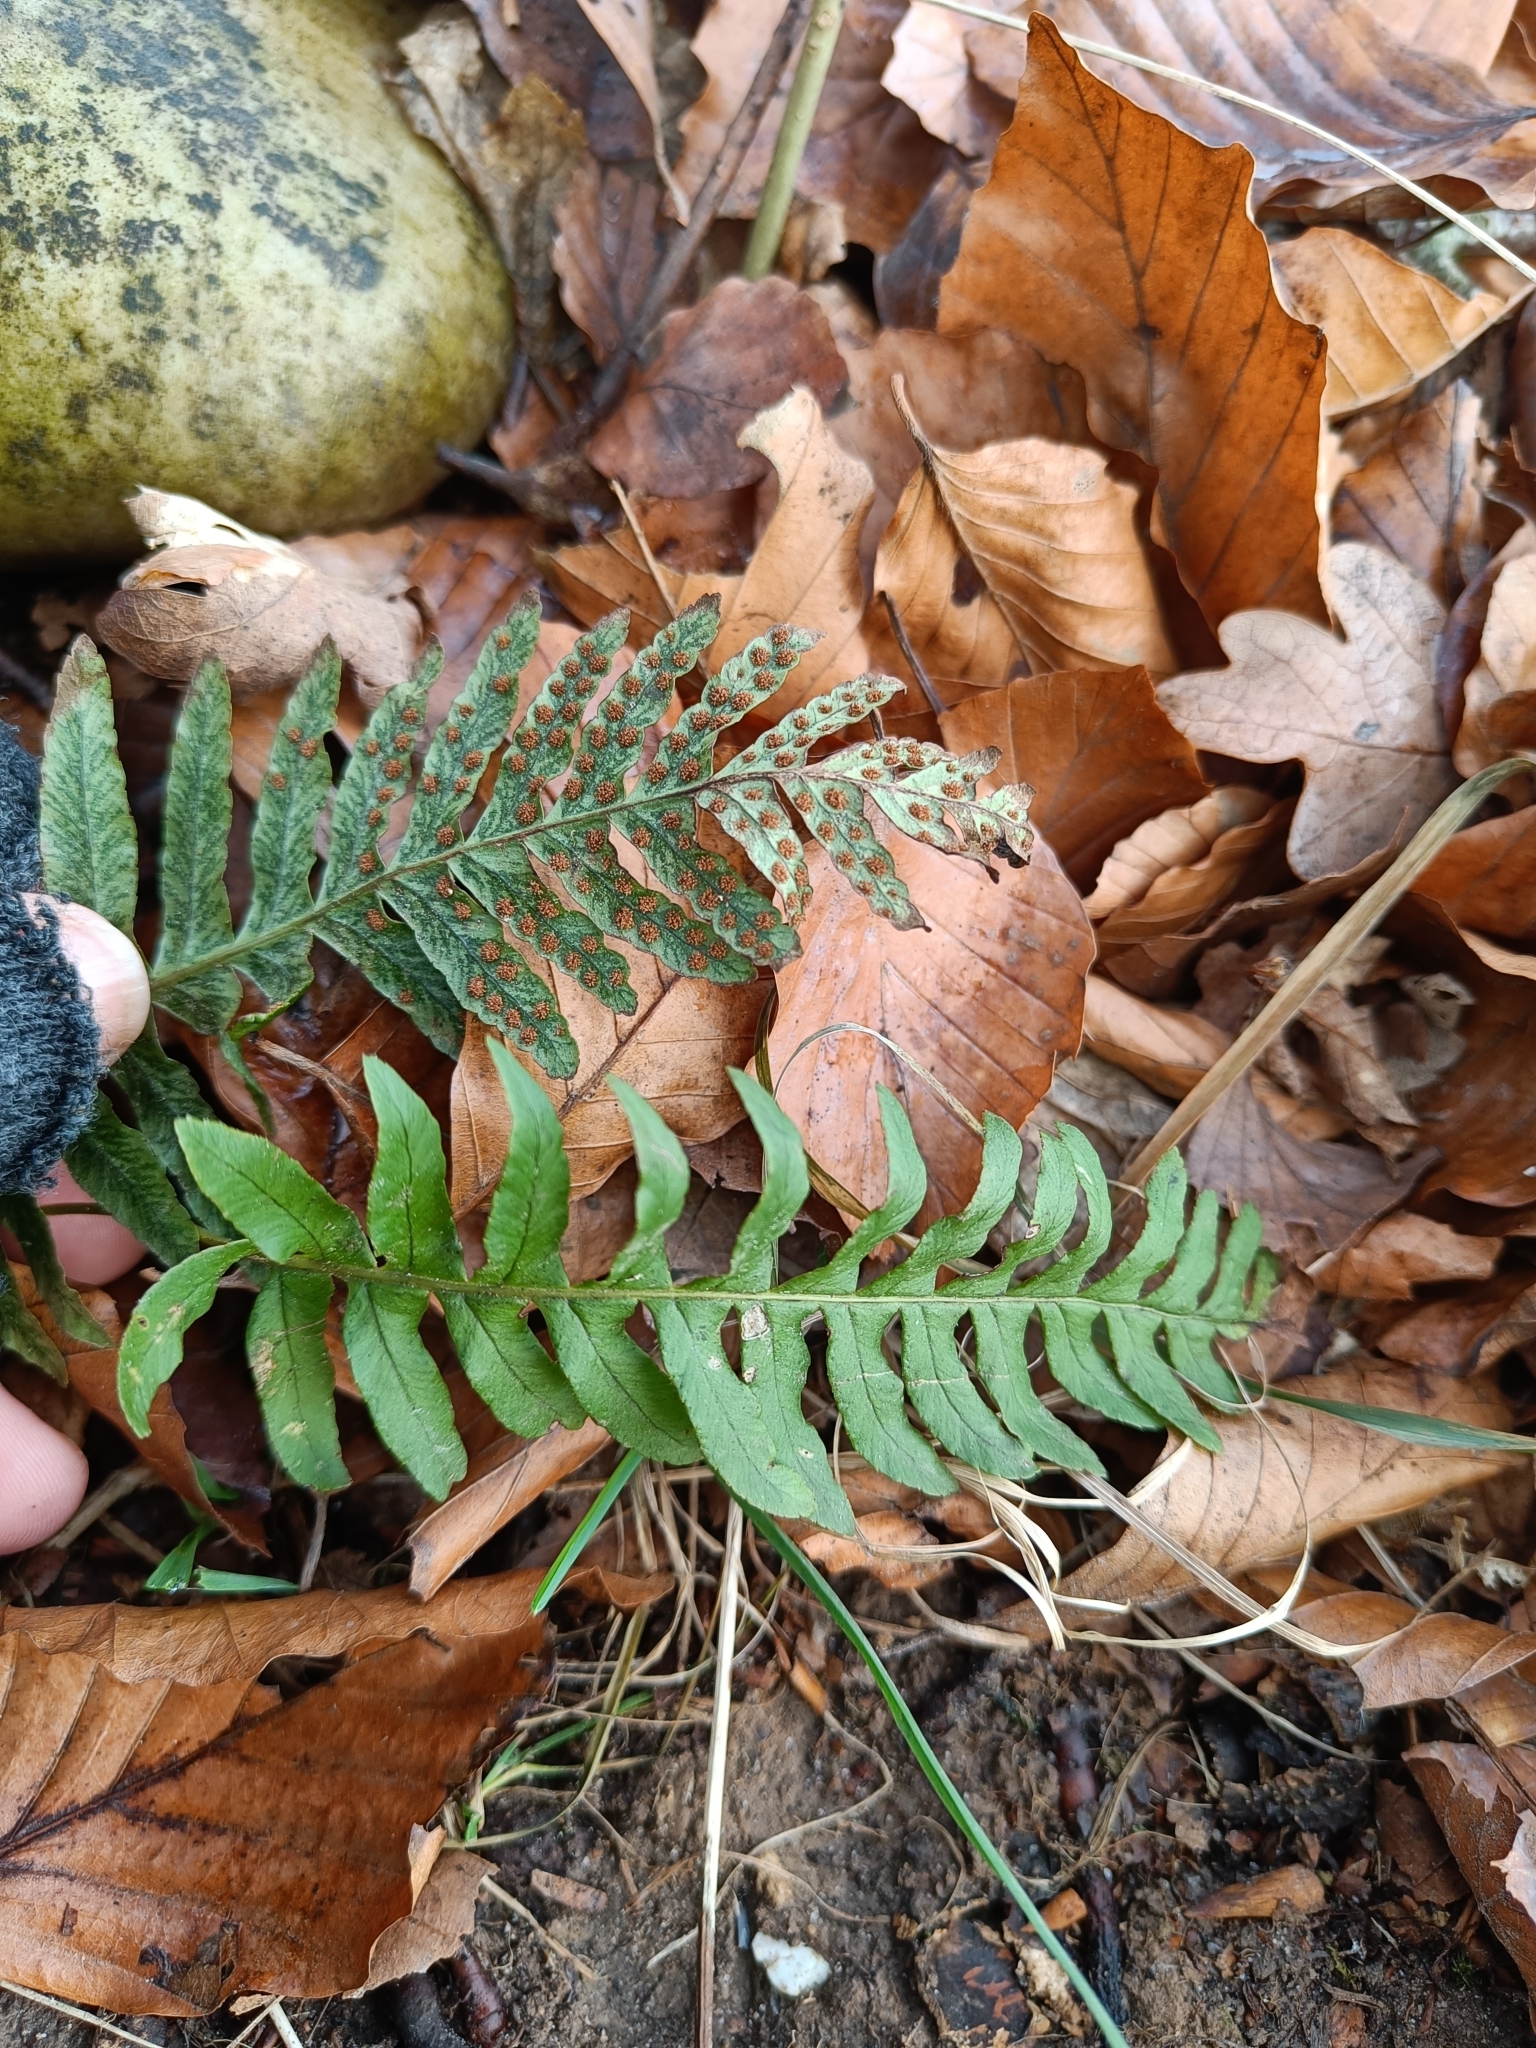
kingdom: Plantae
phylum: Tracheophyta
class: Polypodiopsida
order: Polypodiales
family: Polypodiaceae
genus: Polypodium
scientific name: Polypodium vulgare
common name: Common polypody
